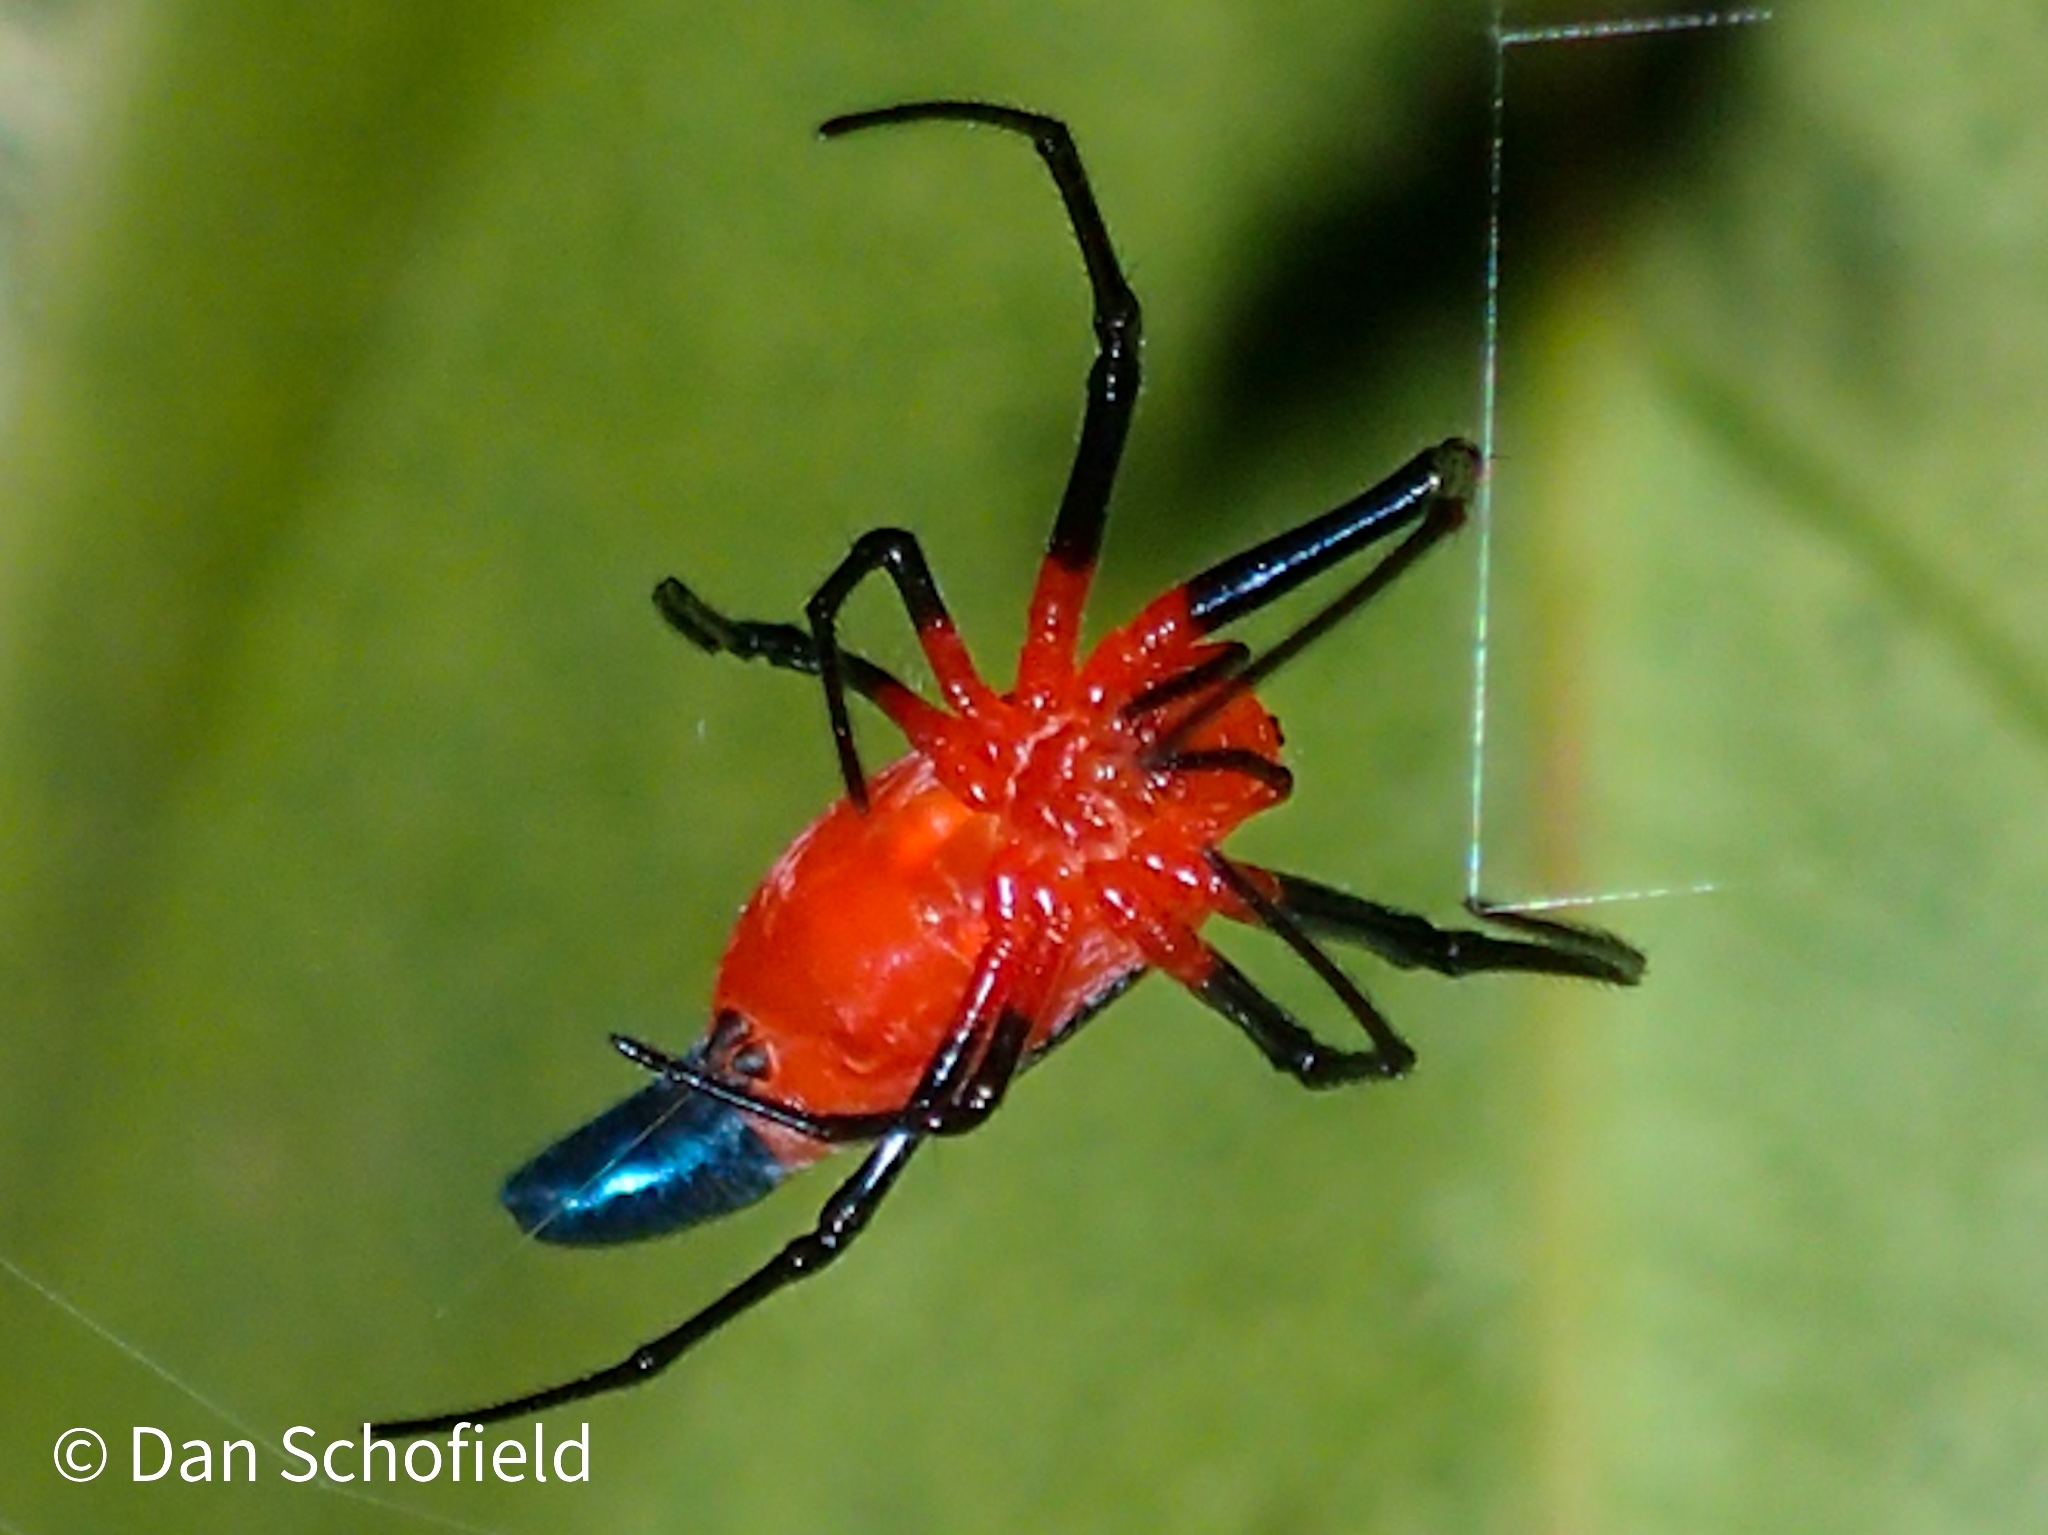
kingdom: Animalia
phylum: Arthropoda
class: Arachnida
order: Araneae
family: Tetragnathidae
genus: Leucauge
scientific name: Leucauge licina
